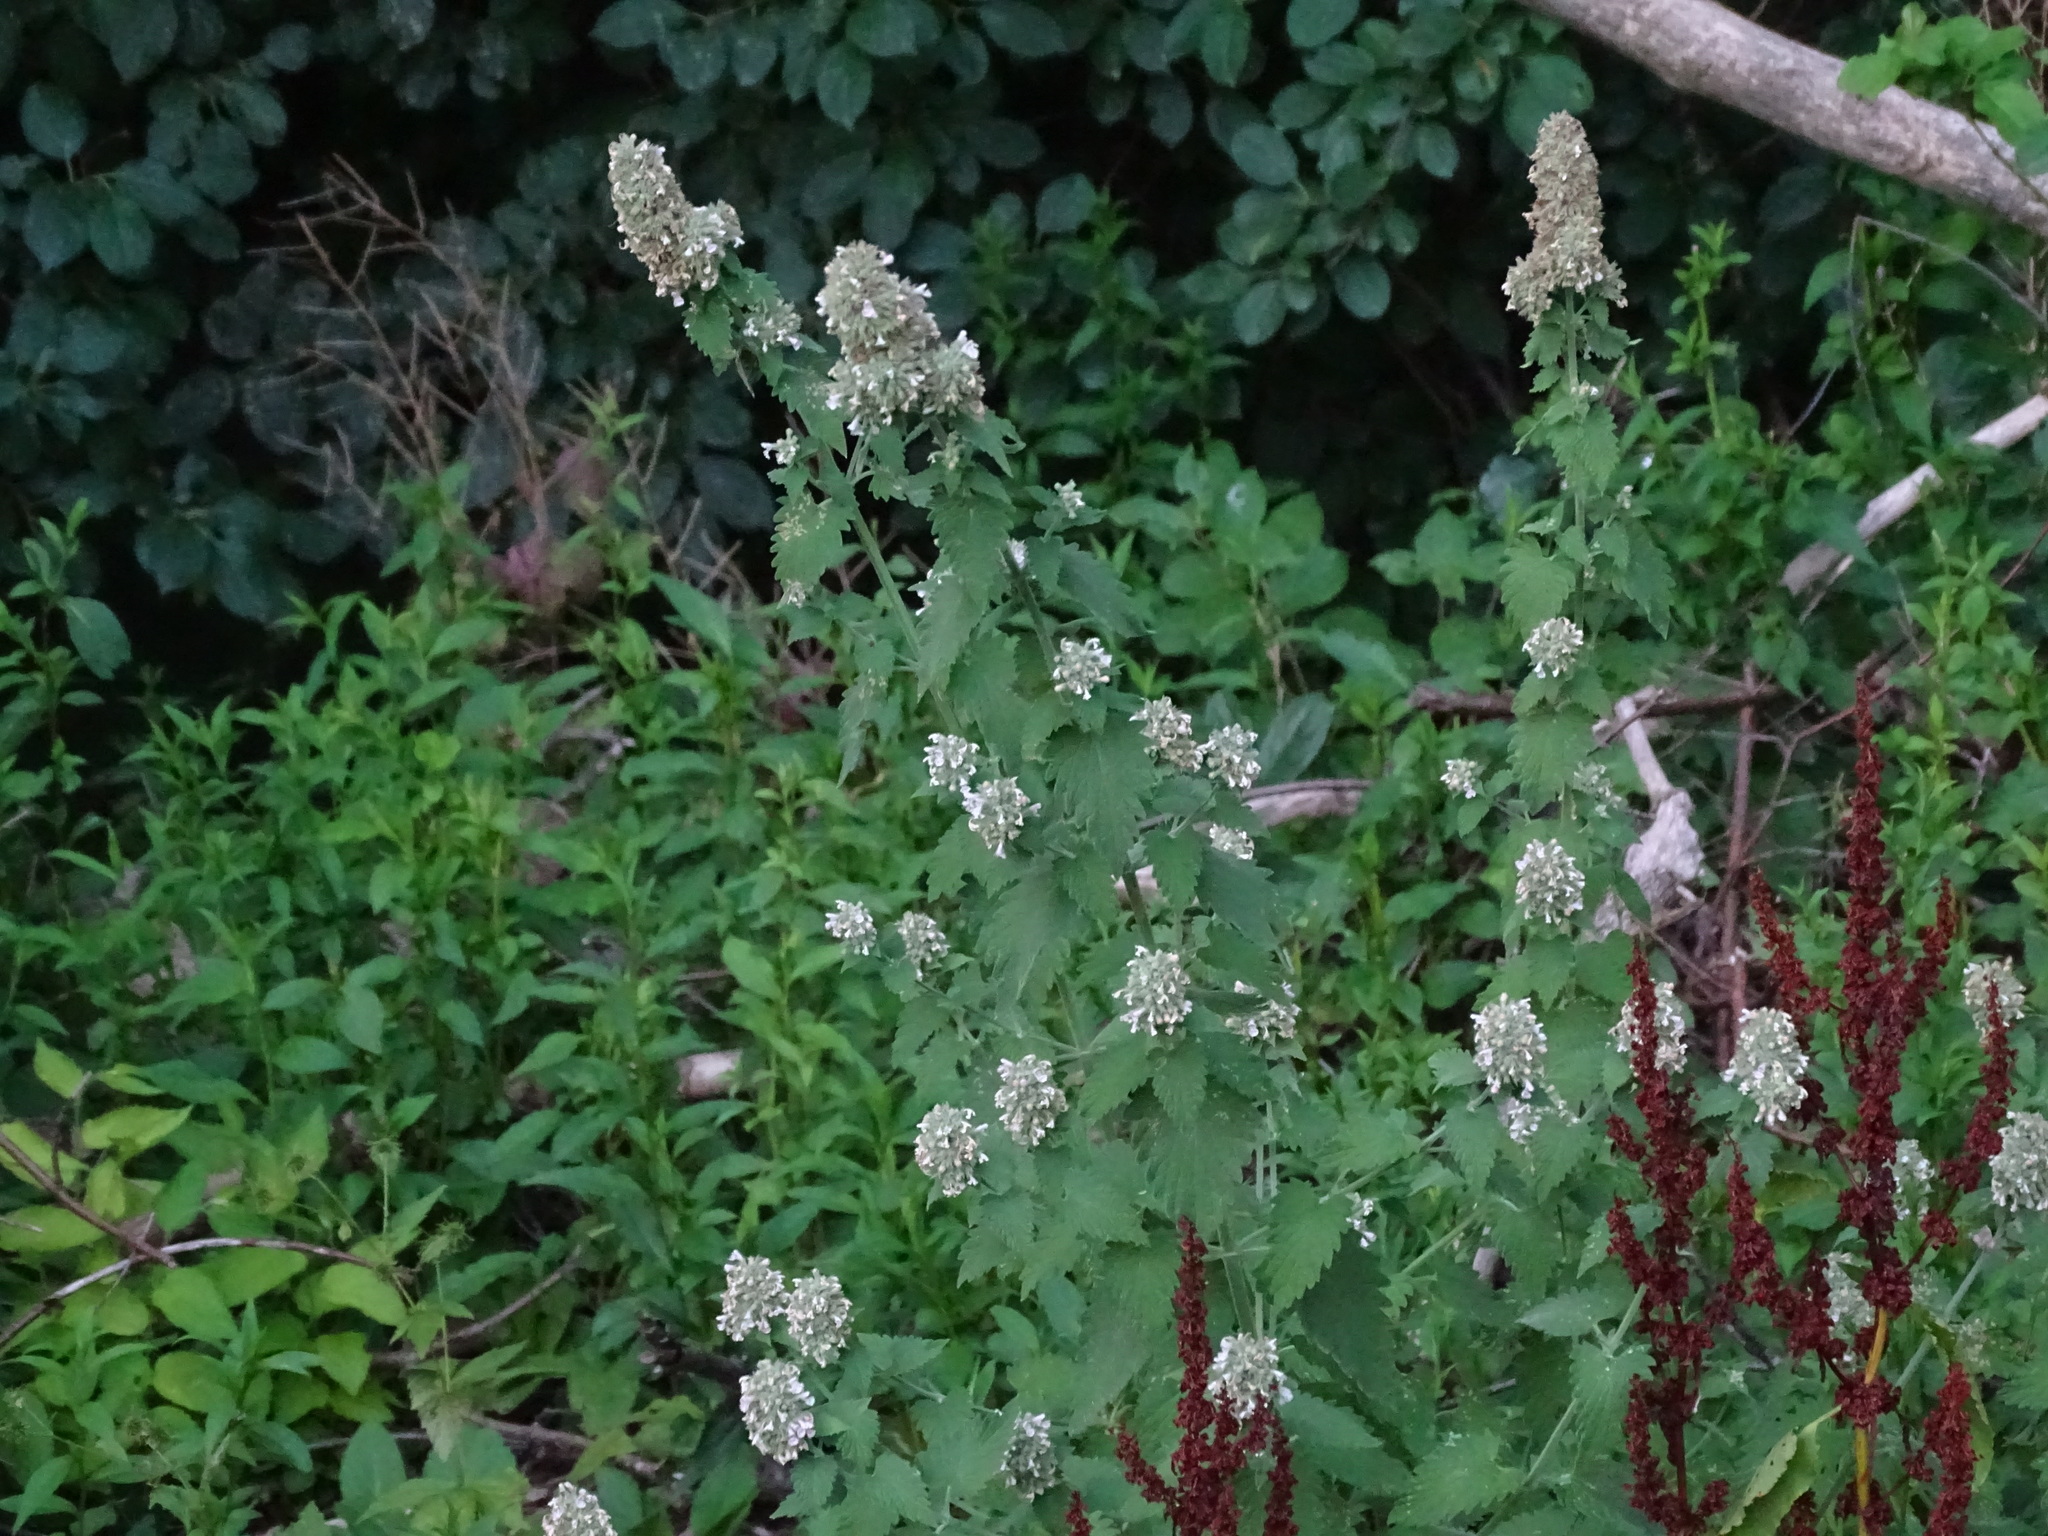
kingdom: Plantae
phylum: Tracheophyta
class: Magnoliopsida
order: Lamiales
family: Lamiaceae
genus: Nepeta
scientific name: Nepeta cataria
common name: Catnip
